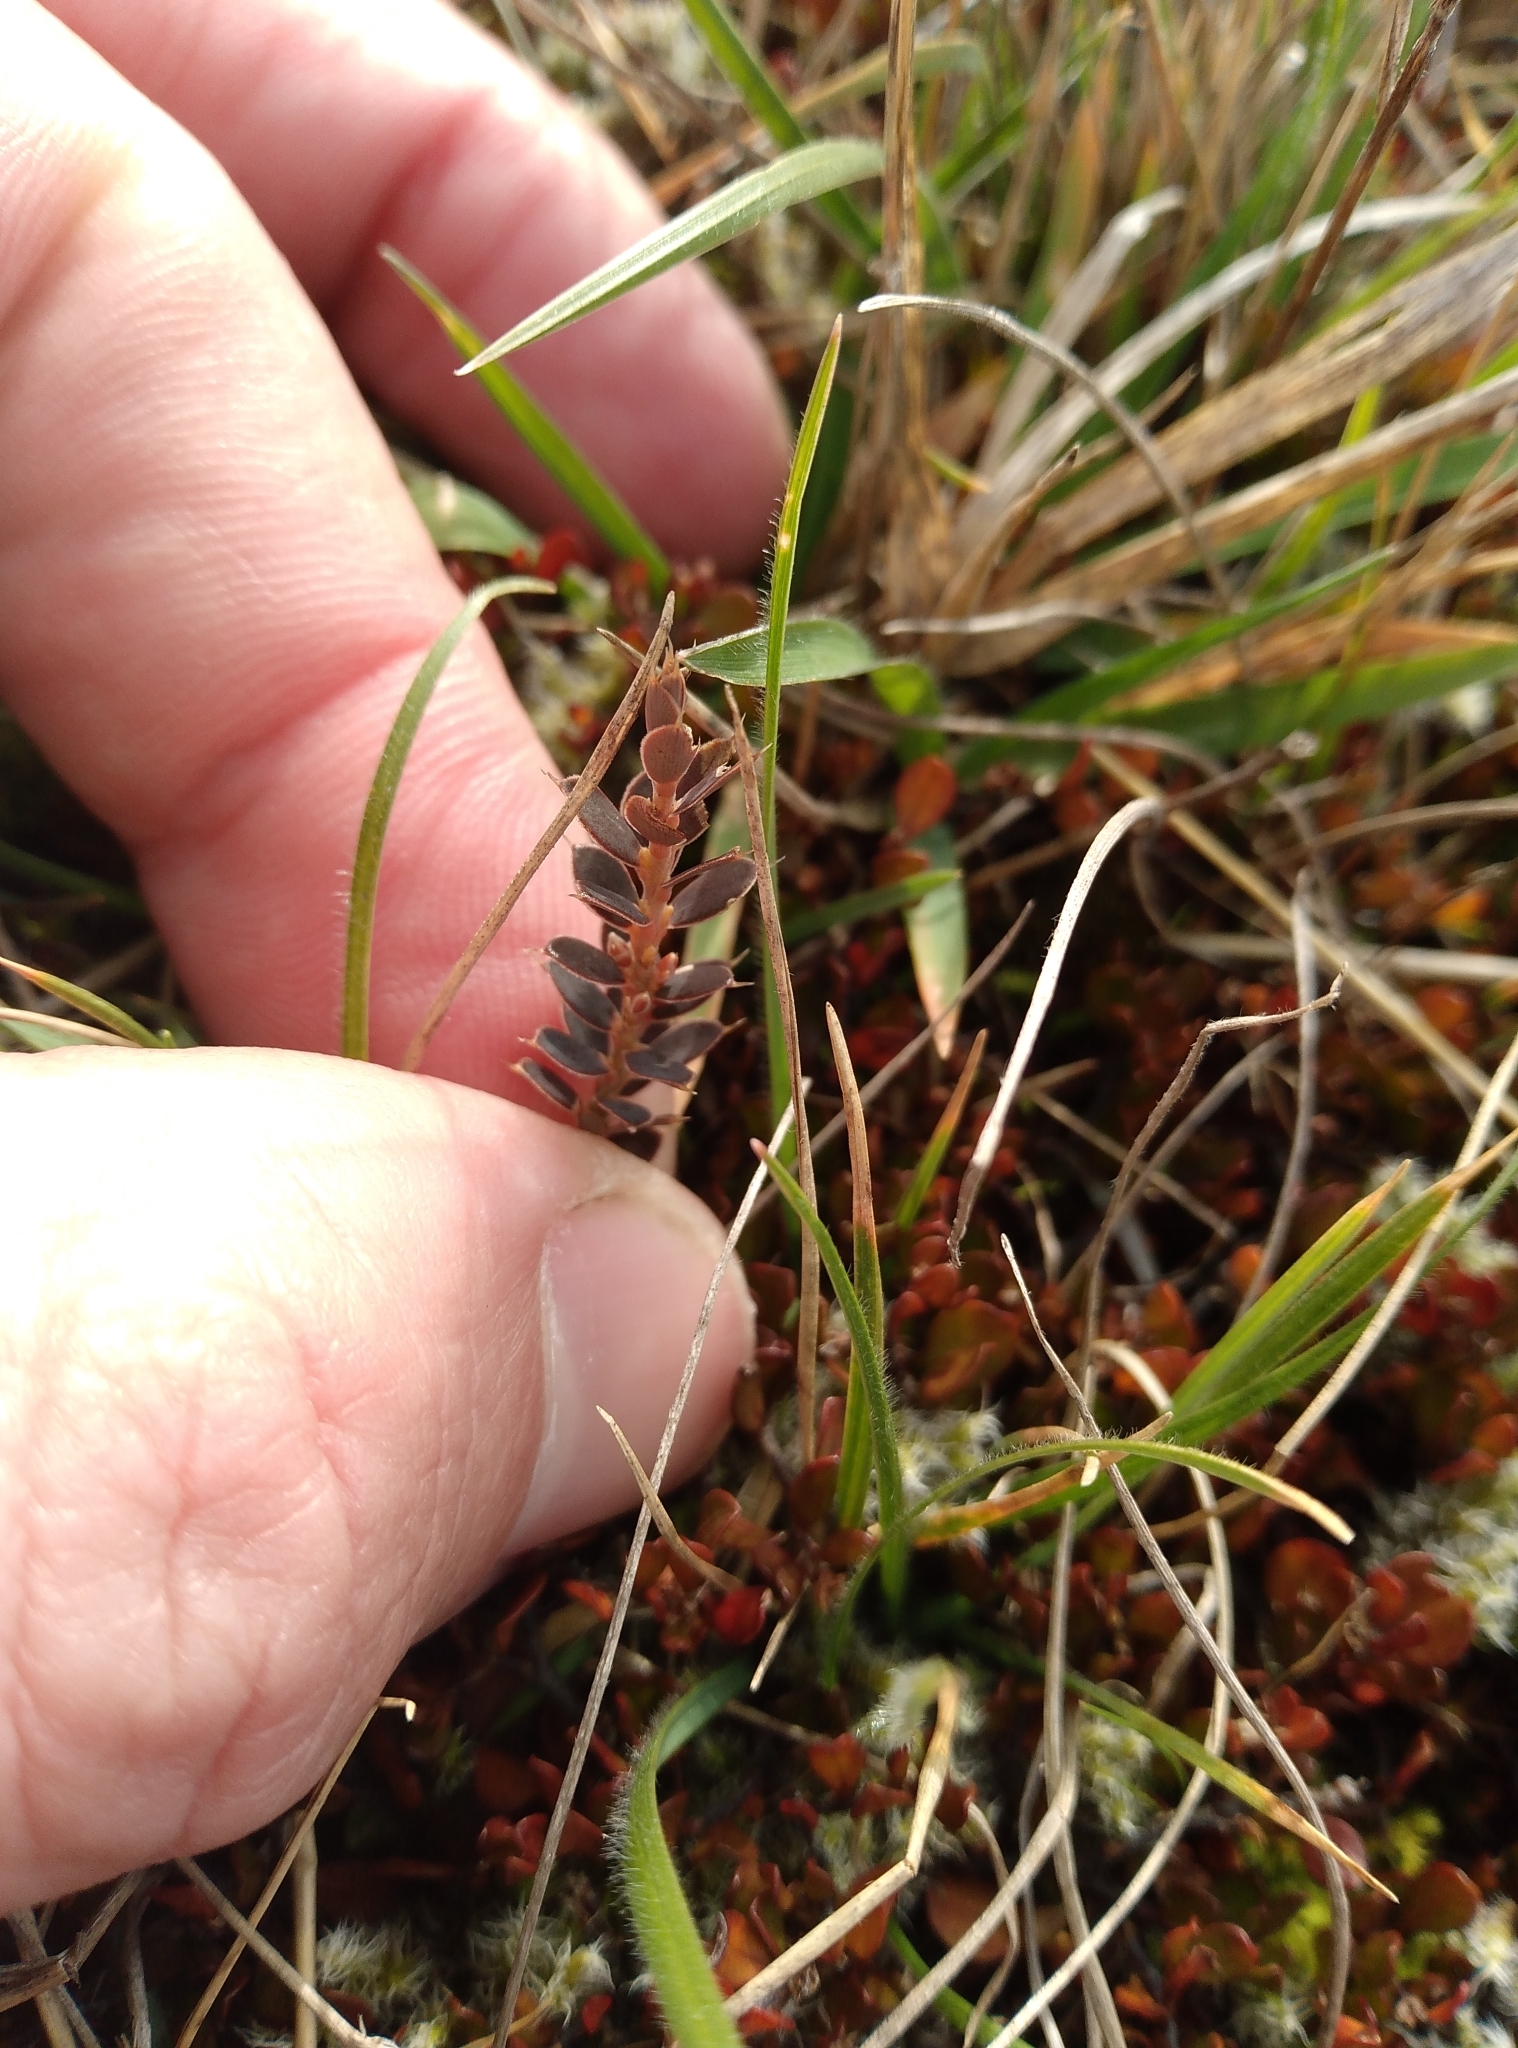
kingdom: Plantae
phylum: Tracheophyta
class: Magnoliopsida
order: Ericales
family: Ericaceae
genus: Styphelia
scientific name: Styphelia nesophila
